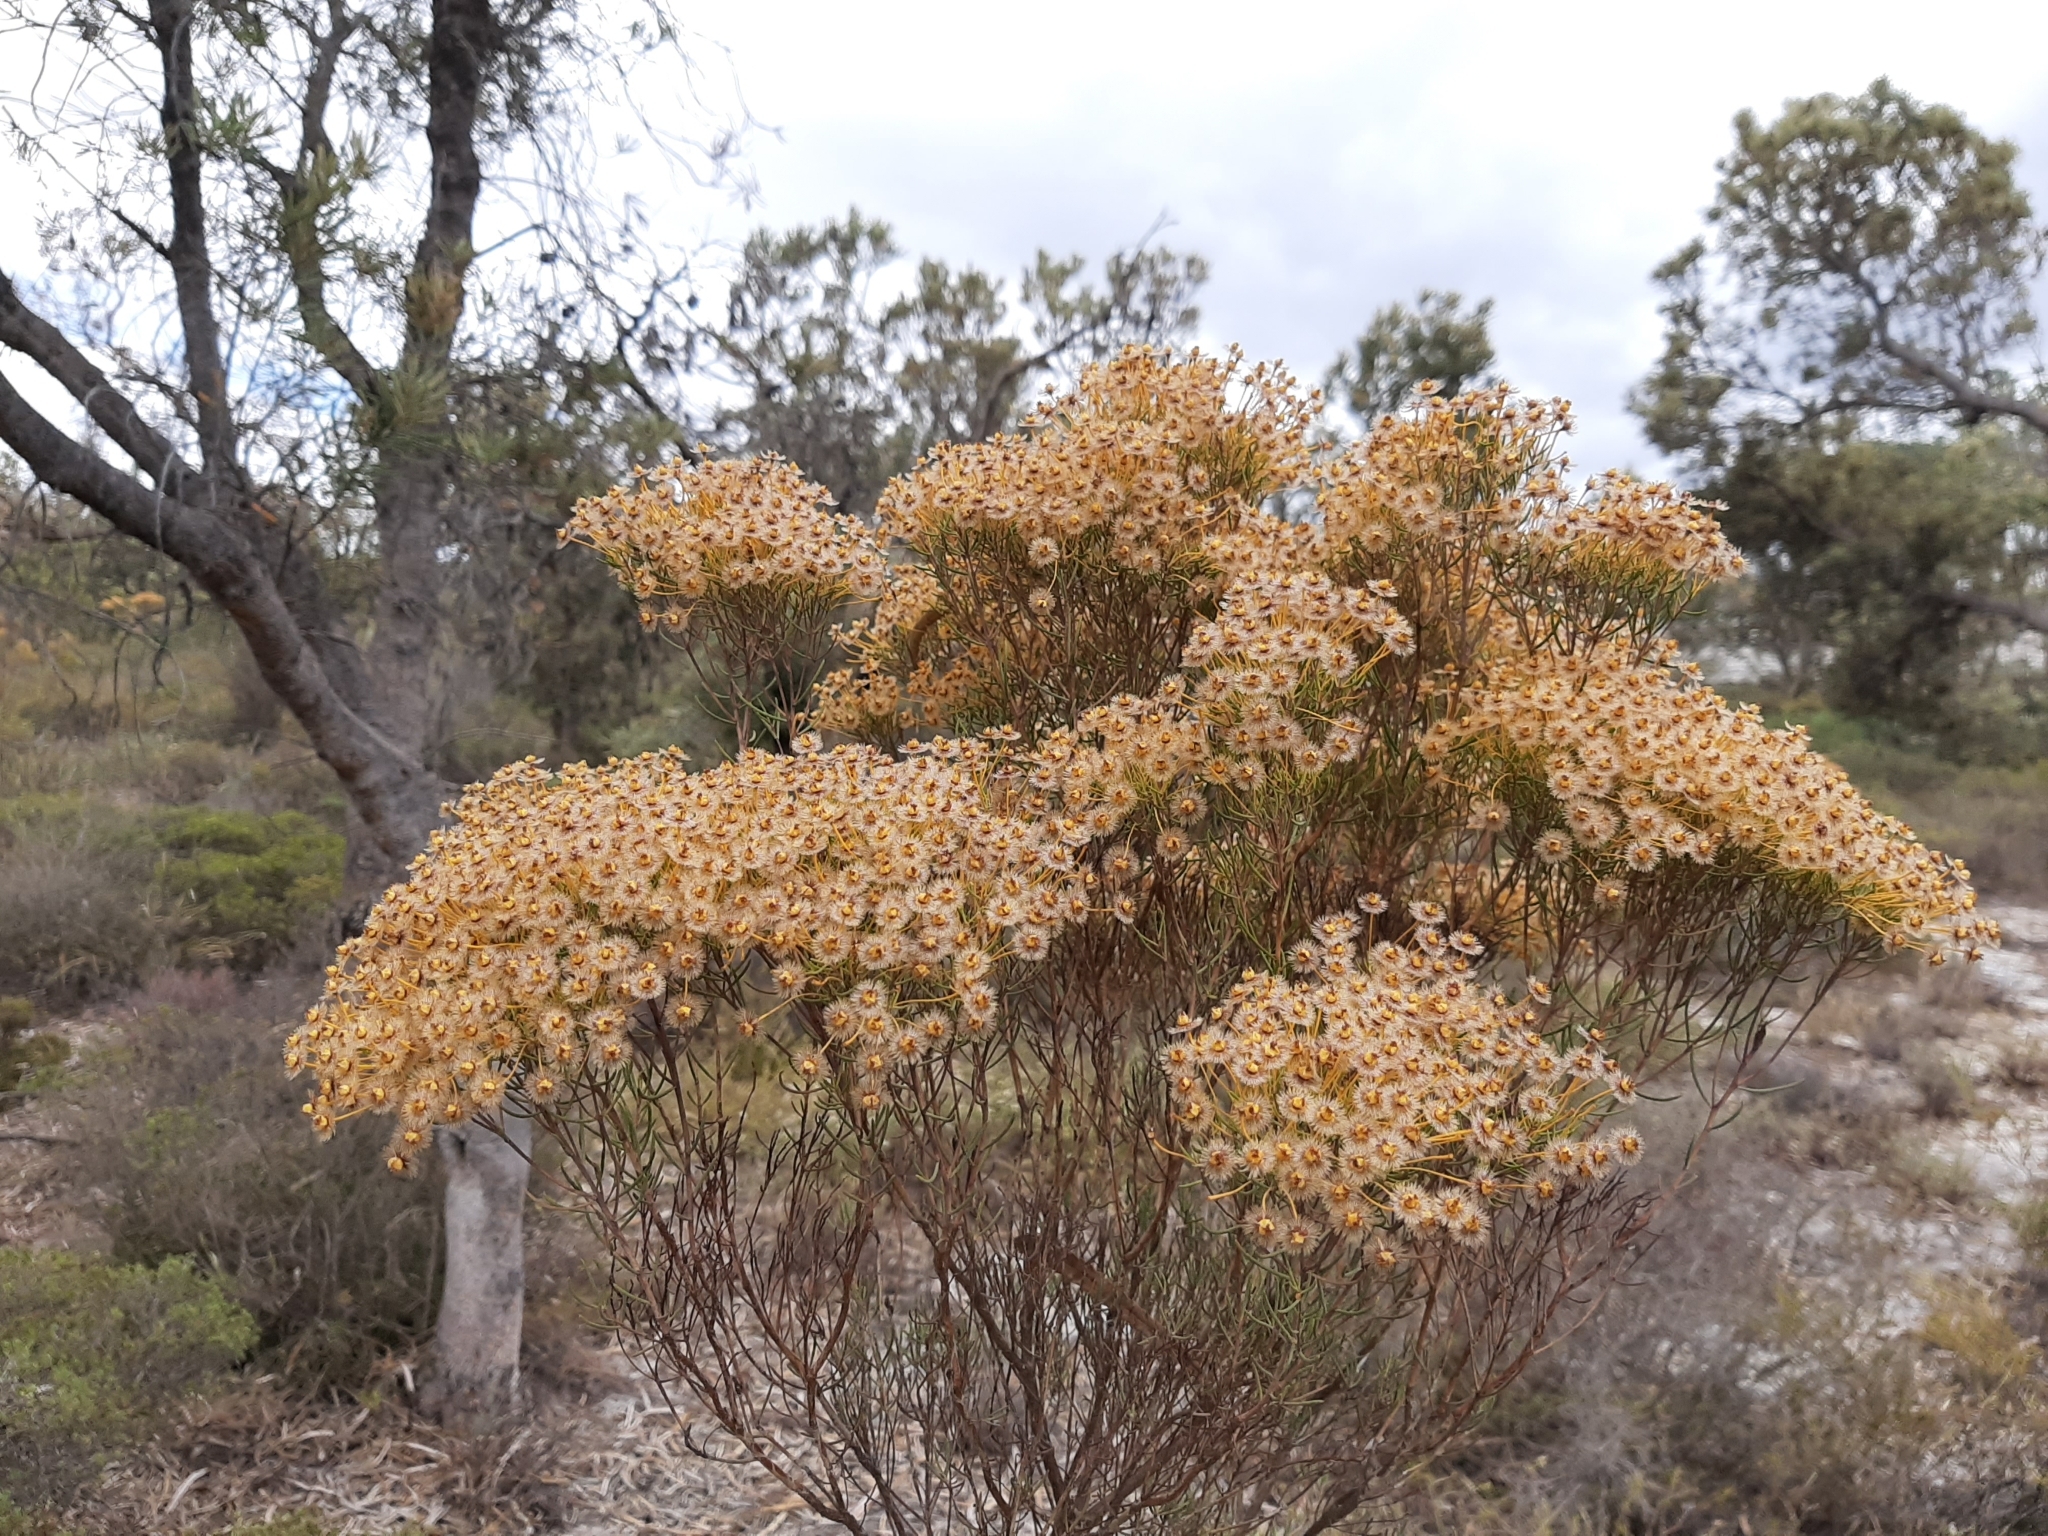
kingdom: Plantae
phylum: Tracheophyta
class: Magnoliopsida
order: Myrtales
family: Myrtaceae
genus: Verticordia
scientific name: Verticordia nitens
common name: Christmas morrison
